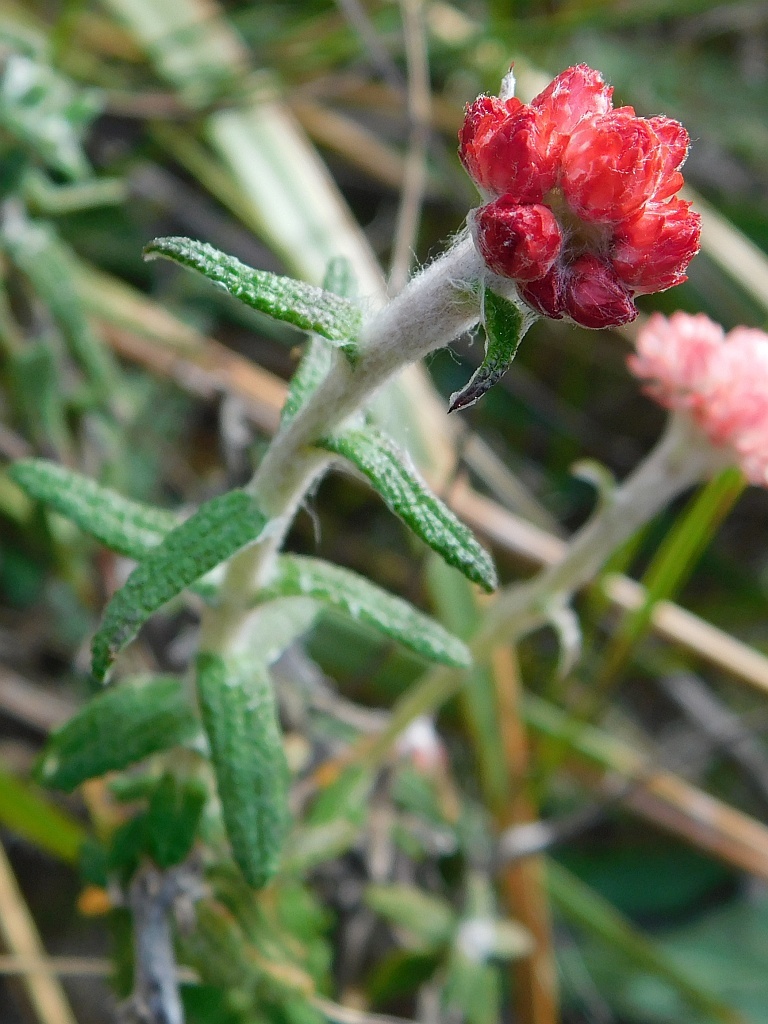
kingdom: Plantae
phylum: Tracheophyta
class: Magnoliopsida
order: Asterales
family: Asteraceae
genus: Helichrysum
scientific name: Helichrysum felinum
